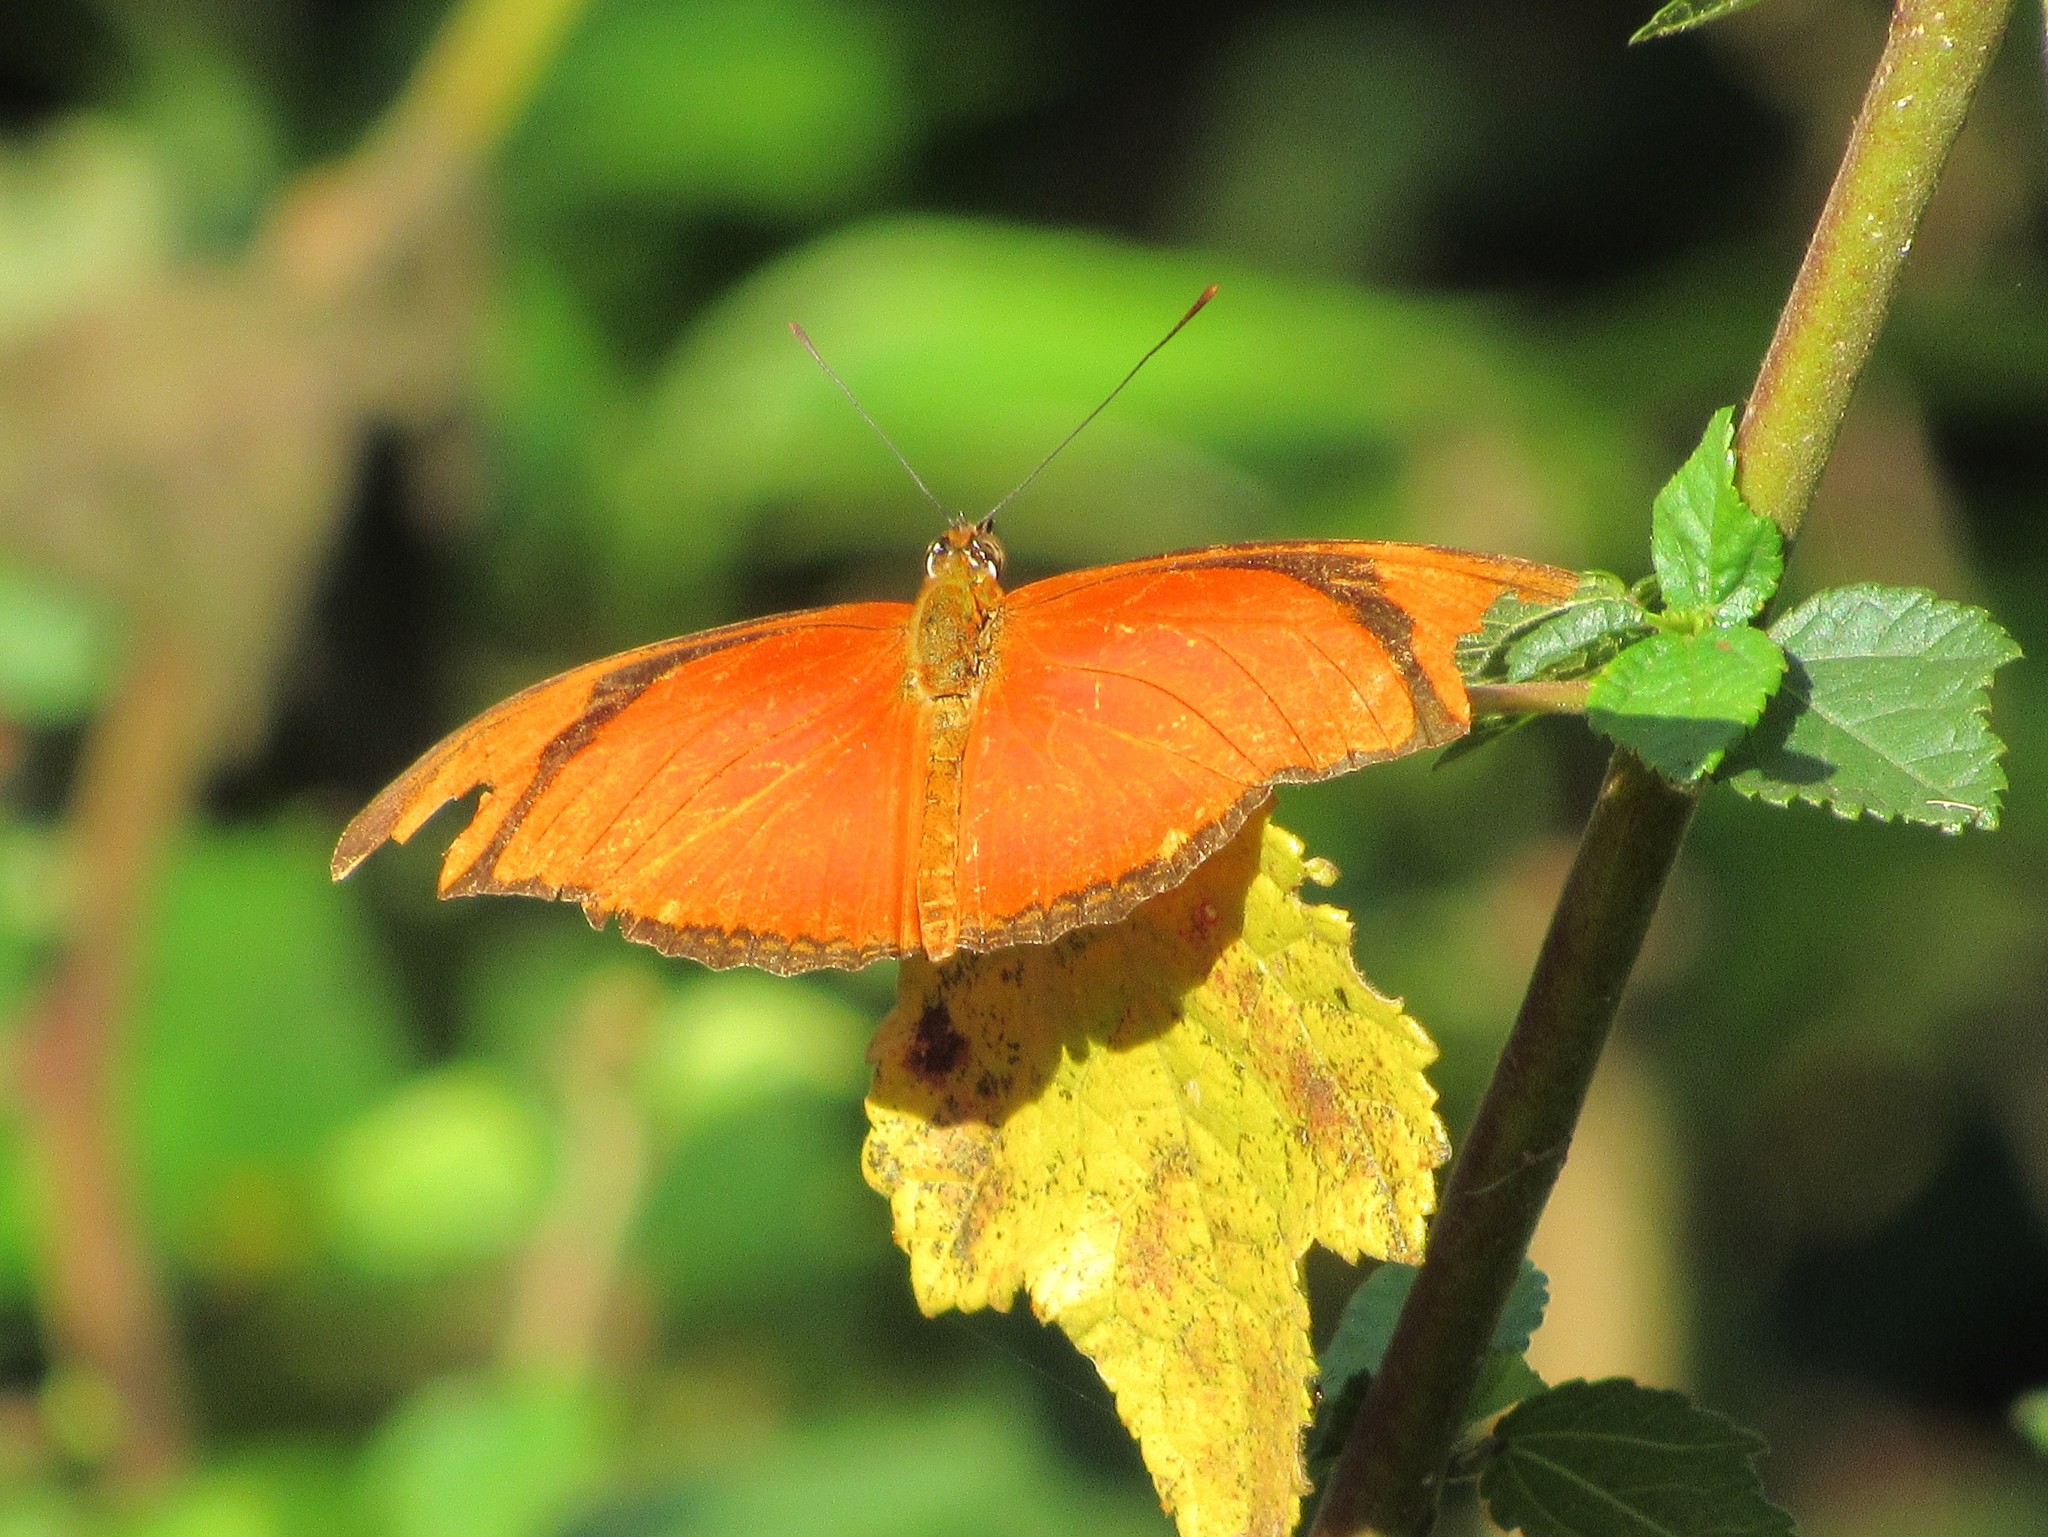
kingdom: Animalia
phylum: Arthropoda
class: Insecta
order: Lepidoptera
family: Nymphalidae
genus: Dryas
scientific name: Dryas iulia
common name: Flambeau
